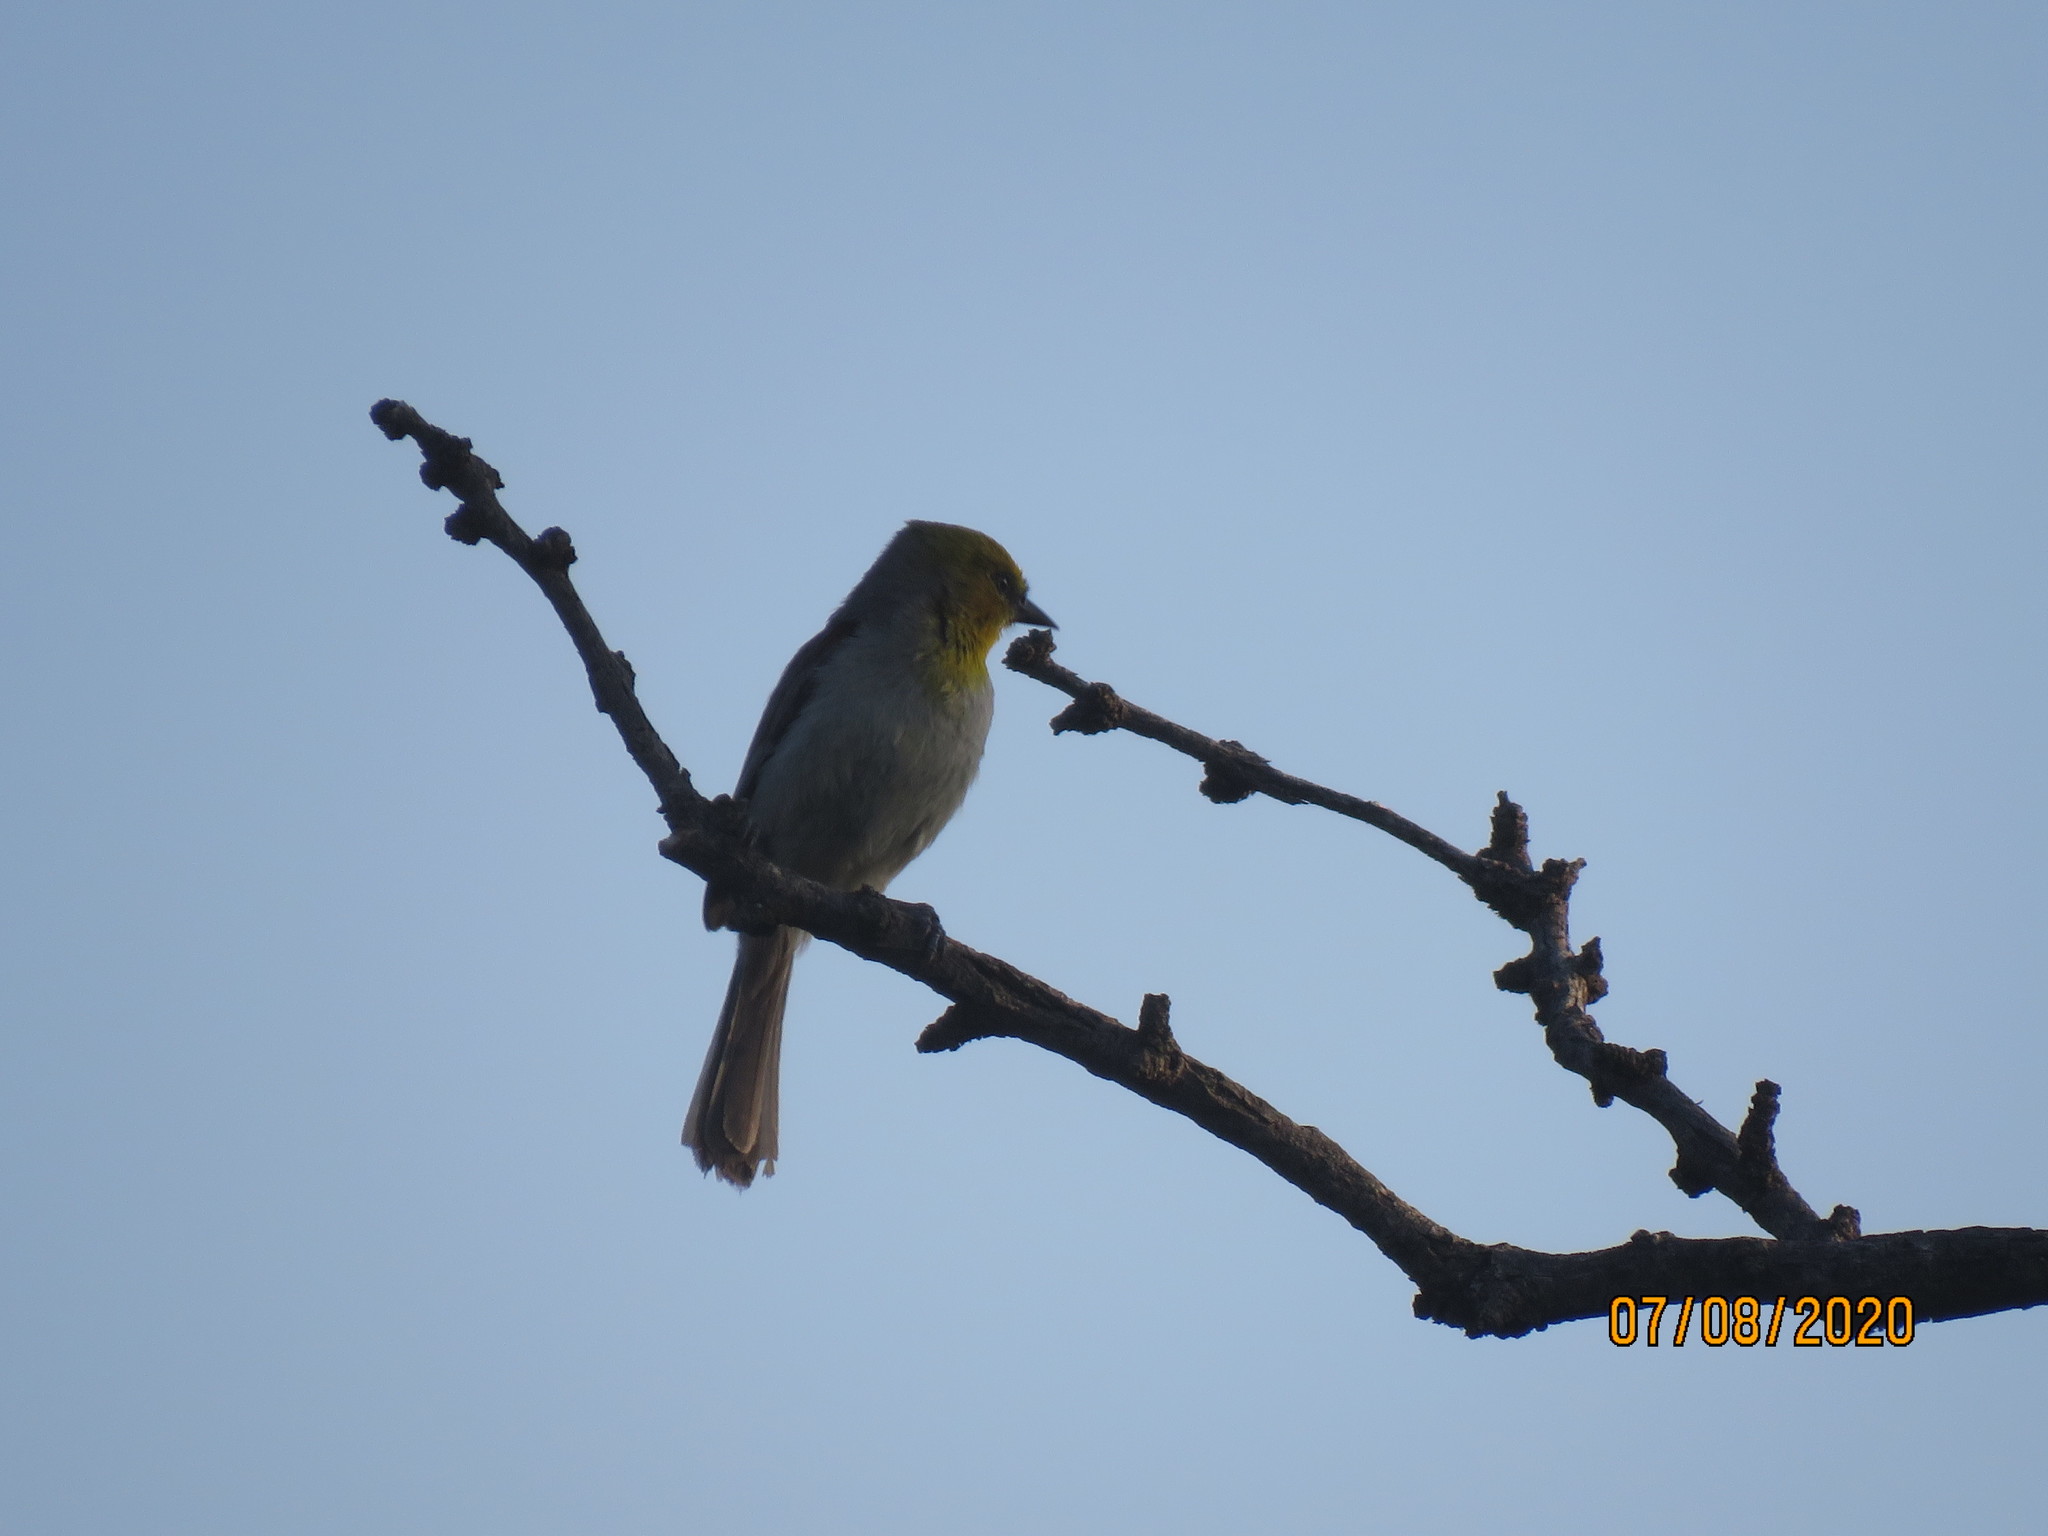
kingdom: Animalia
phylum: Chordata
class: Aves
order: Passeriformes
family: Remizidae
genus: Auriparus
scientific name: Auriparus flaviceps
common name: Verdin
